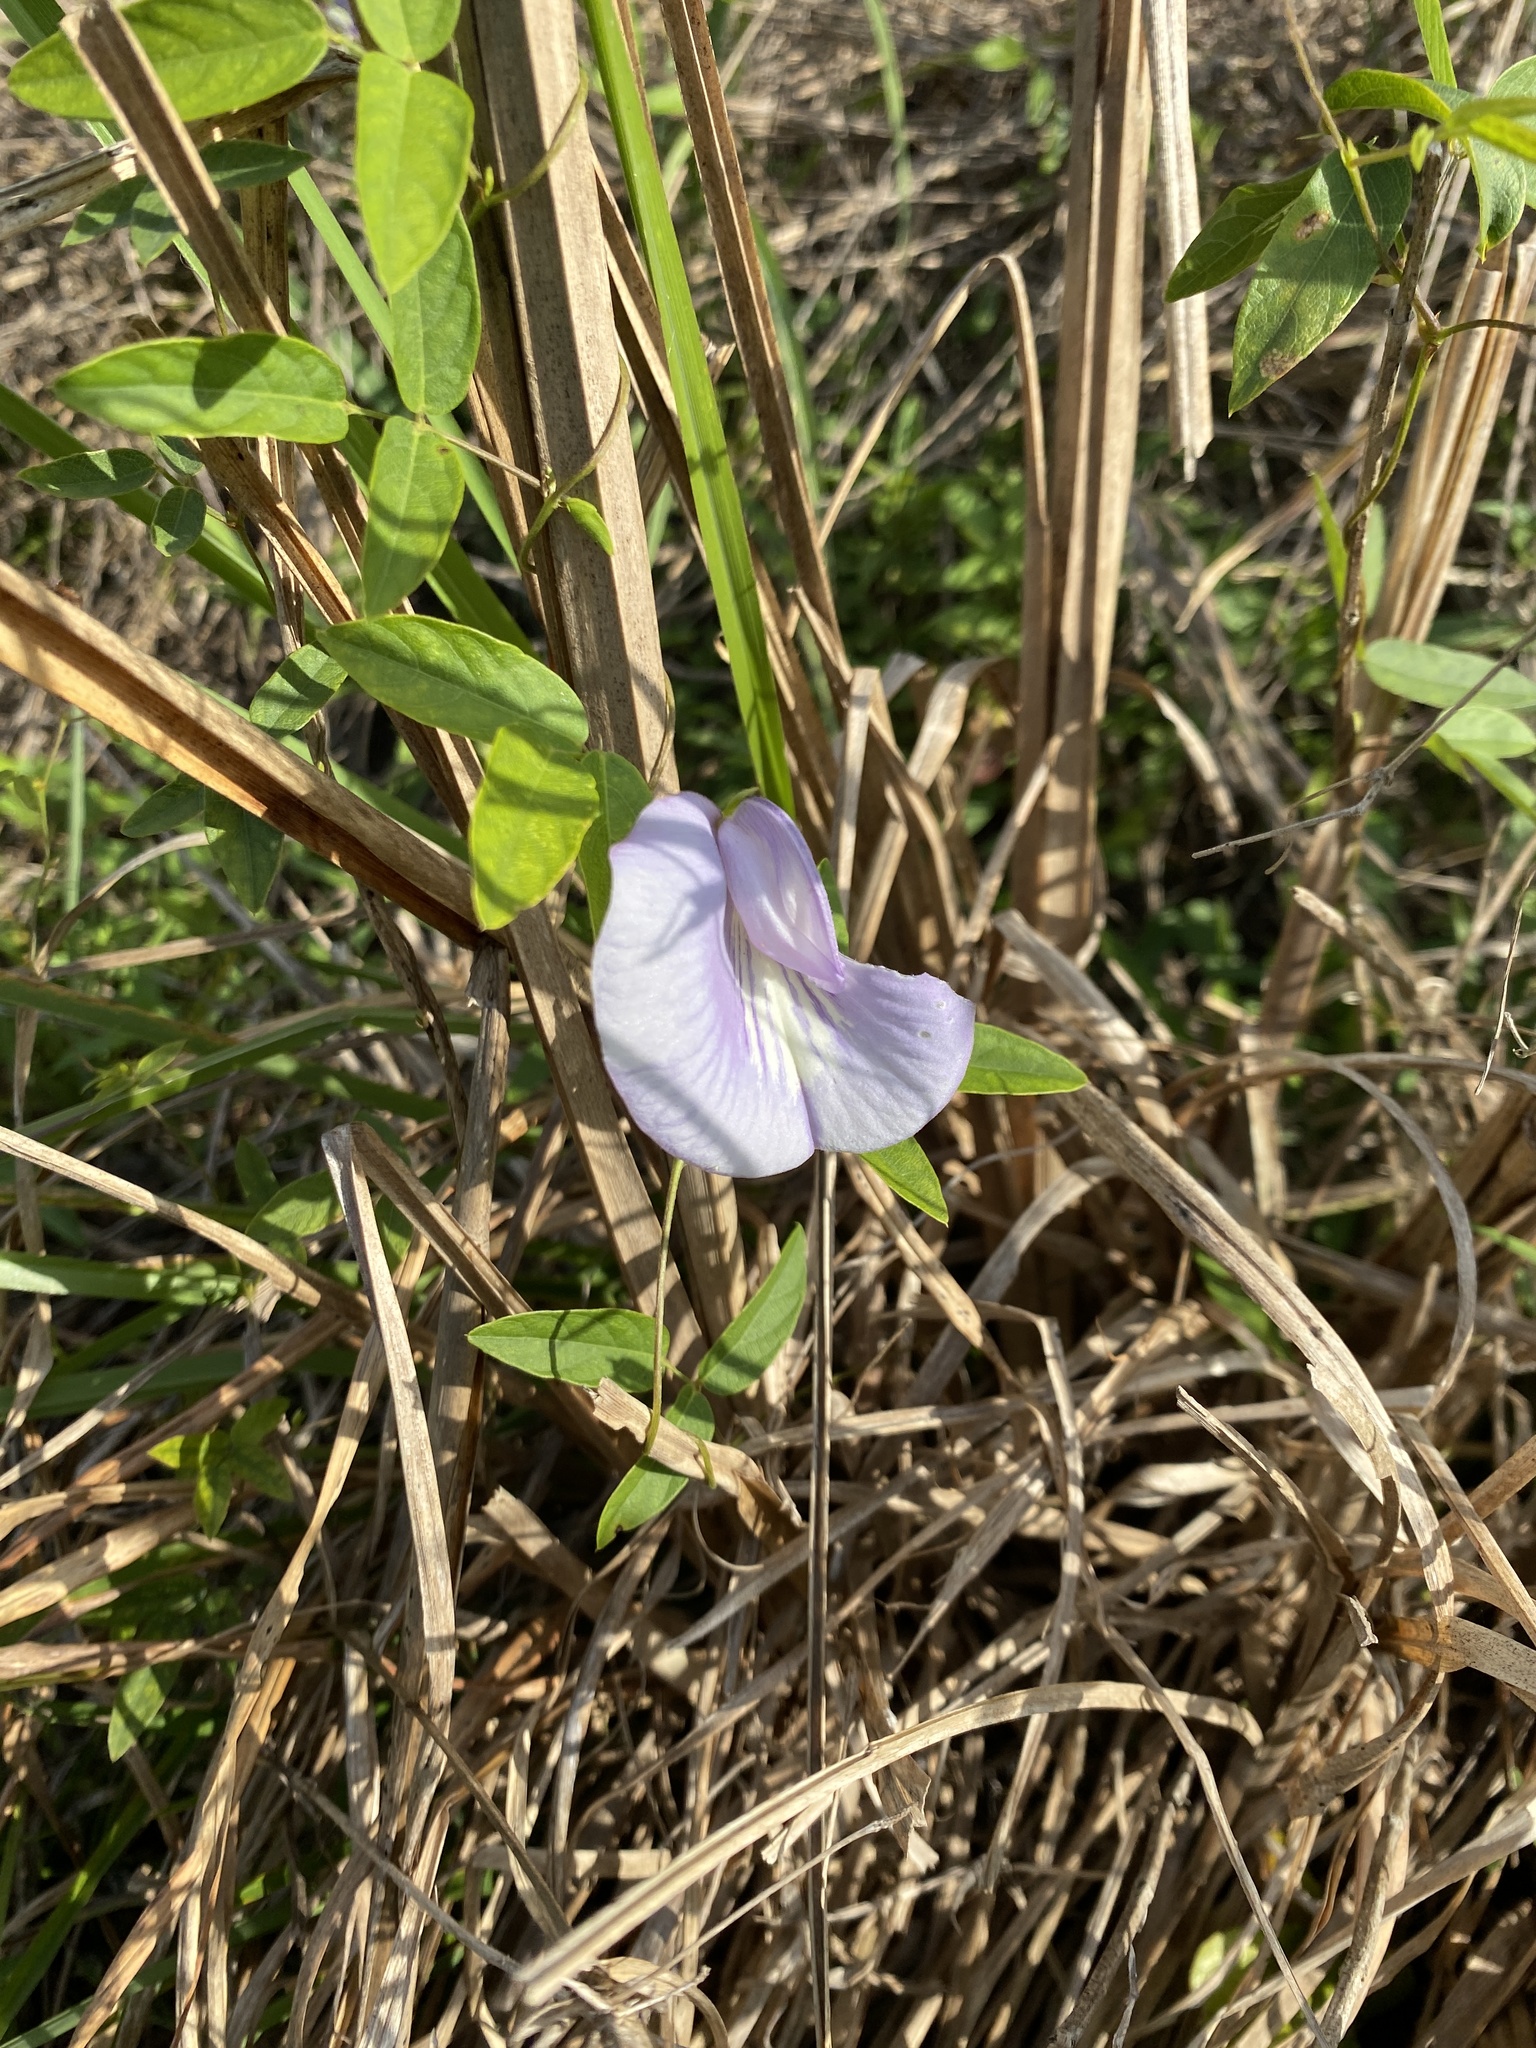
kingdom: Plantae
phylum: Tracheophyta
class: Magnoliopsida
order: Fabales
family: Fabaceae
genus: Centrosema
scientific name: Centrosema virginianum
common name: Butterfly-pea
